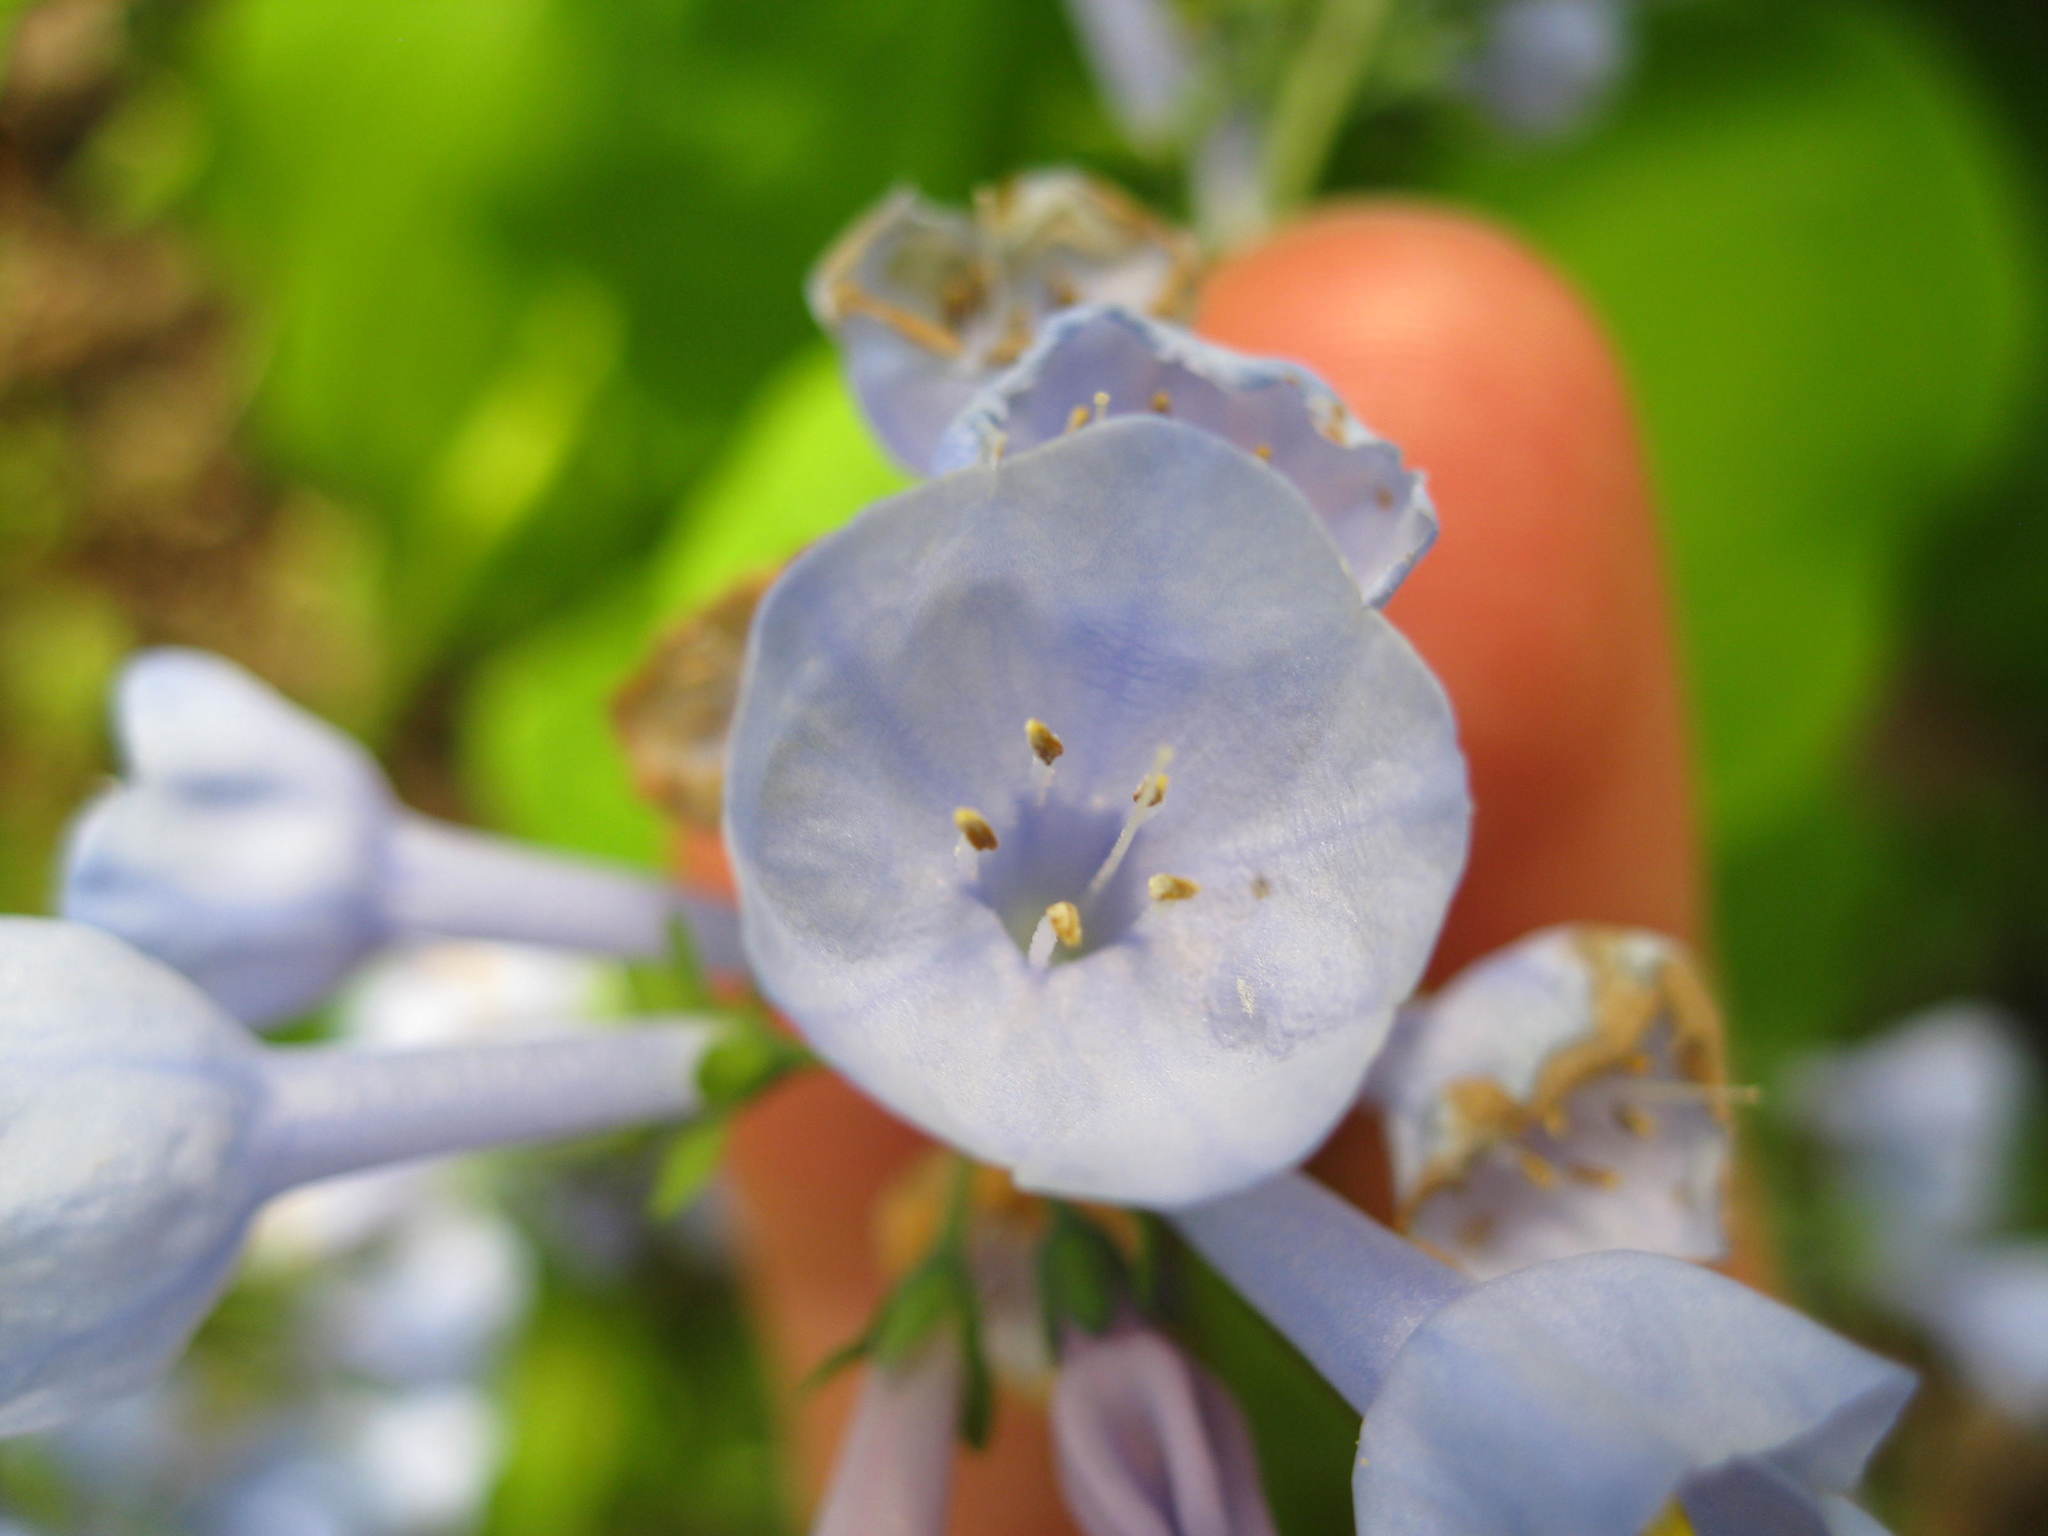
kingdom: Plantae
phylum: Tracheophyta
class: Magnoliopsida
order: Boraginales
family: Boraginaceae
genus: Mertensia
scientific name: Mertensia virginica
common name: Virginia bluebells
